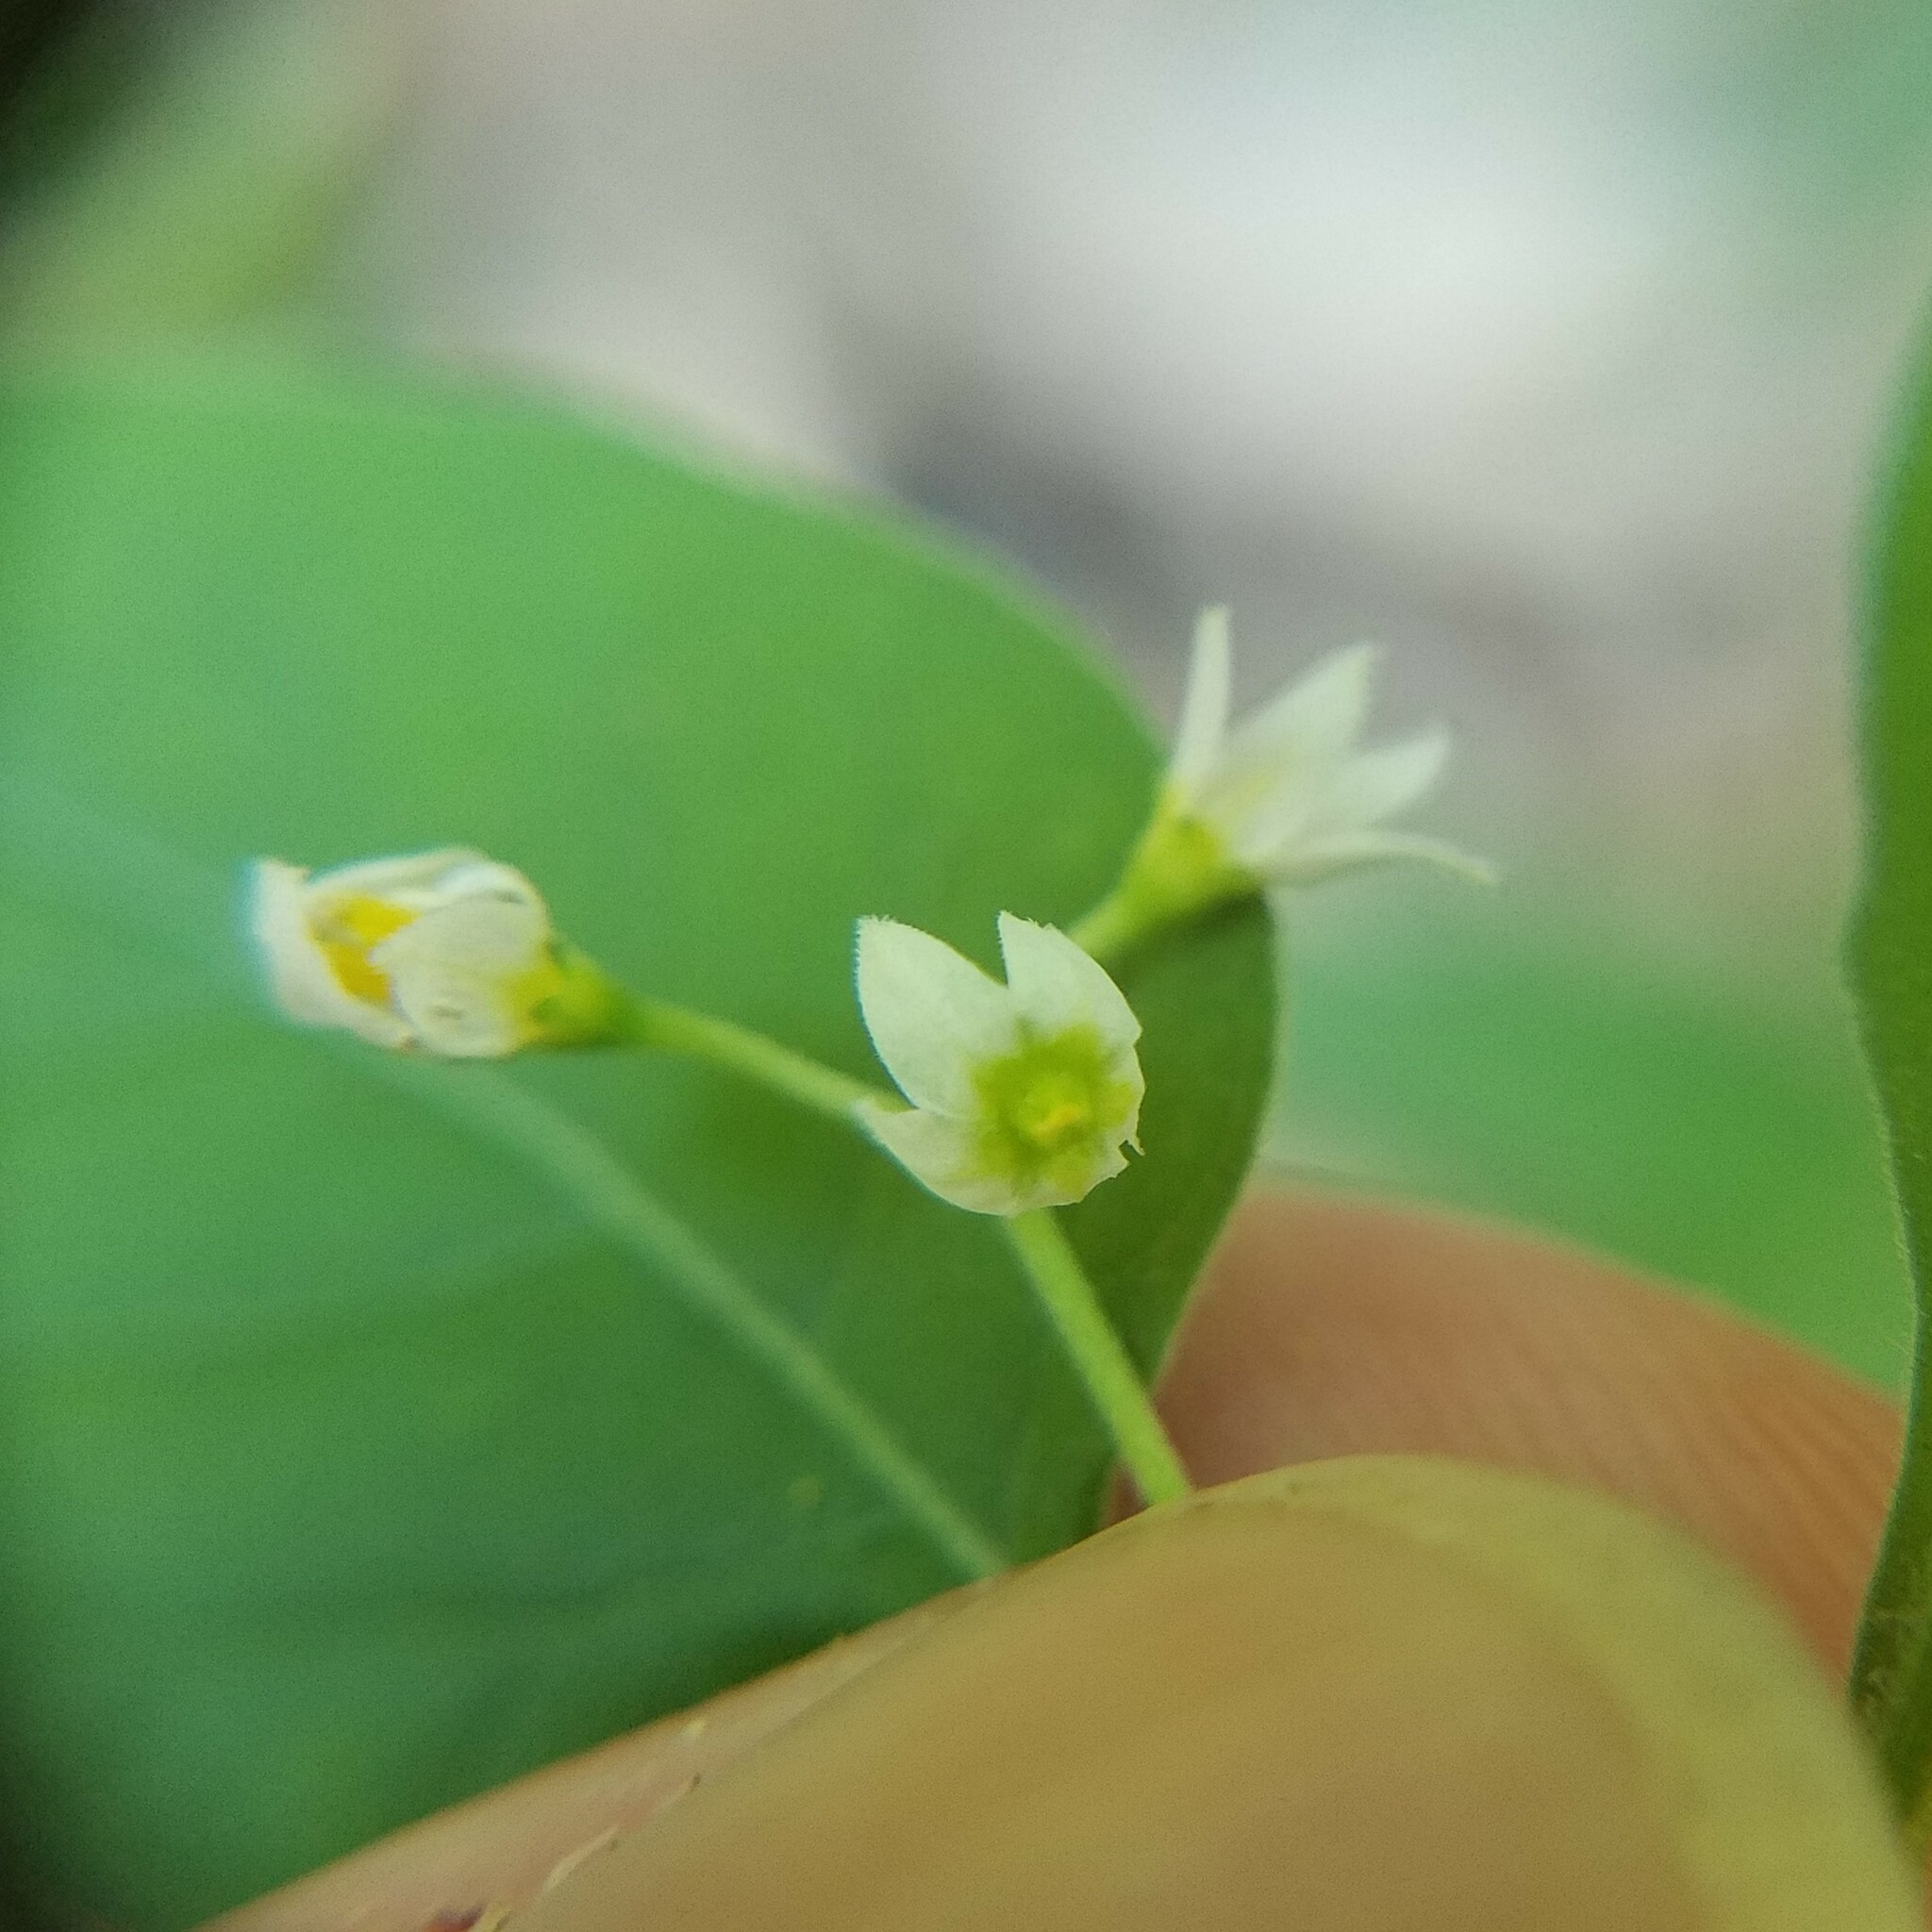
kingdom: Plantae
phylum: Tracheophyta
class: Magnoliopsida
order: Solanales
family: Solanaceae
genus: Solanum
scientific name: Solanum emulans
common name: Eastern black nightshade
